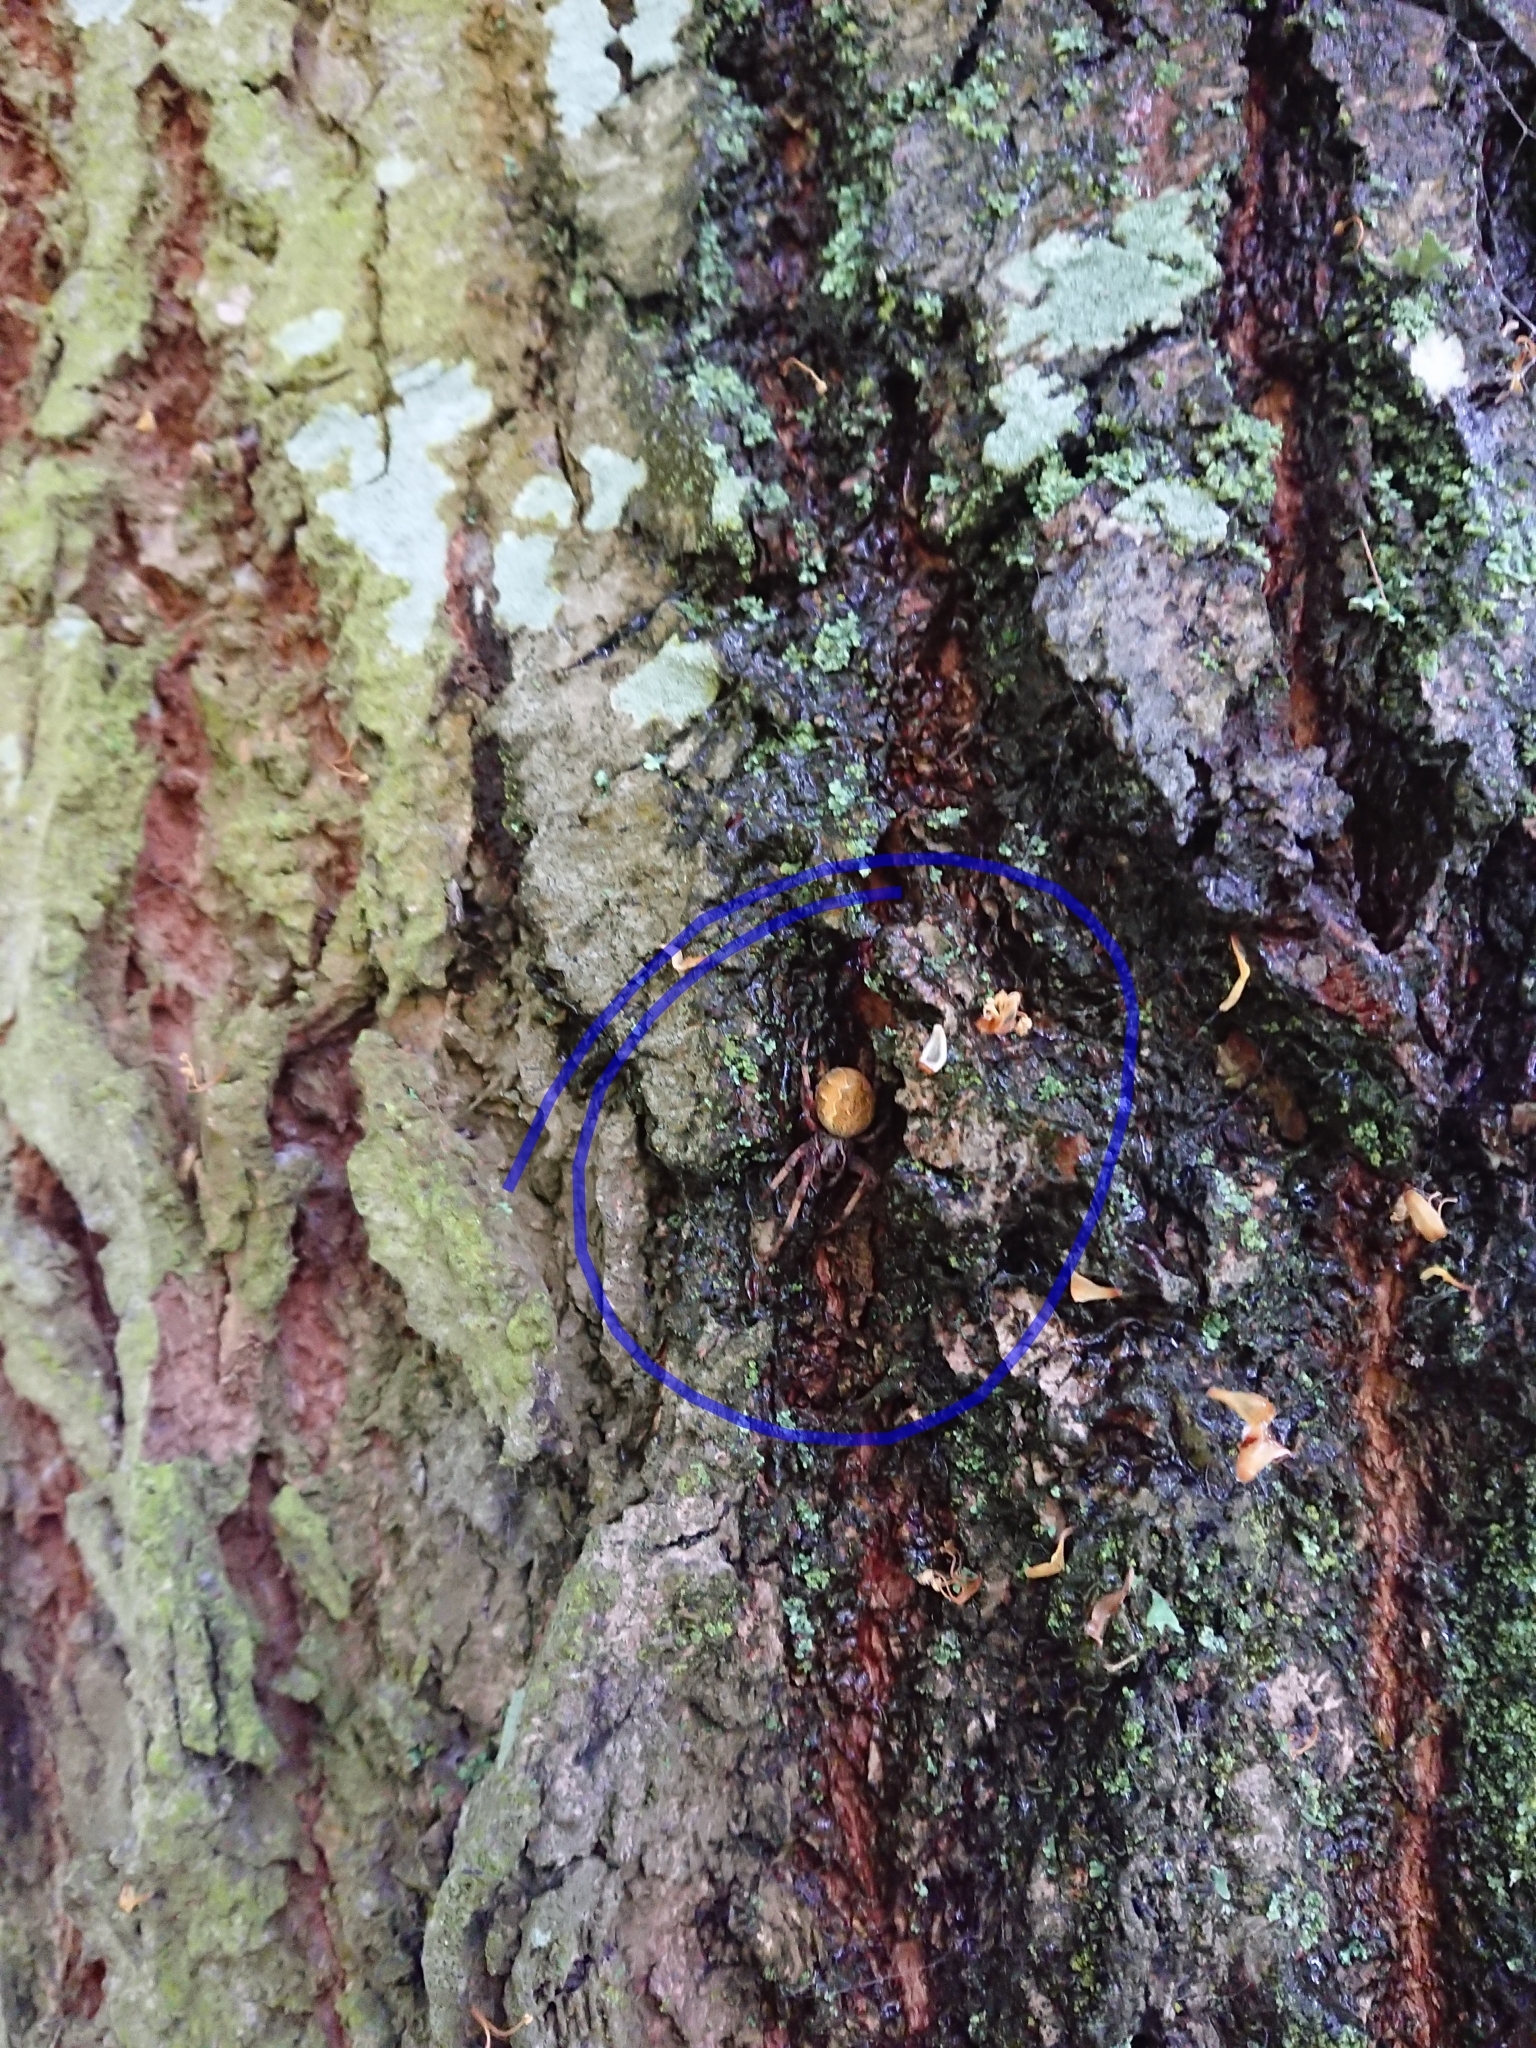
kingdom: Animalia
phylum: Arthropoda
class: Arachnida
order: Araneae
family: Araneidae
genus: Salsa
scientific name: Salsa fuliginata
